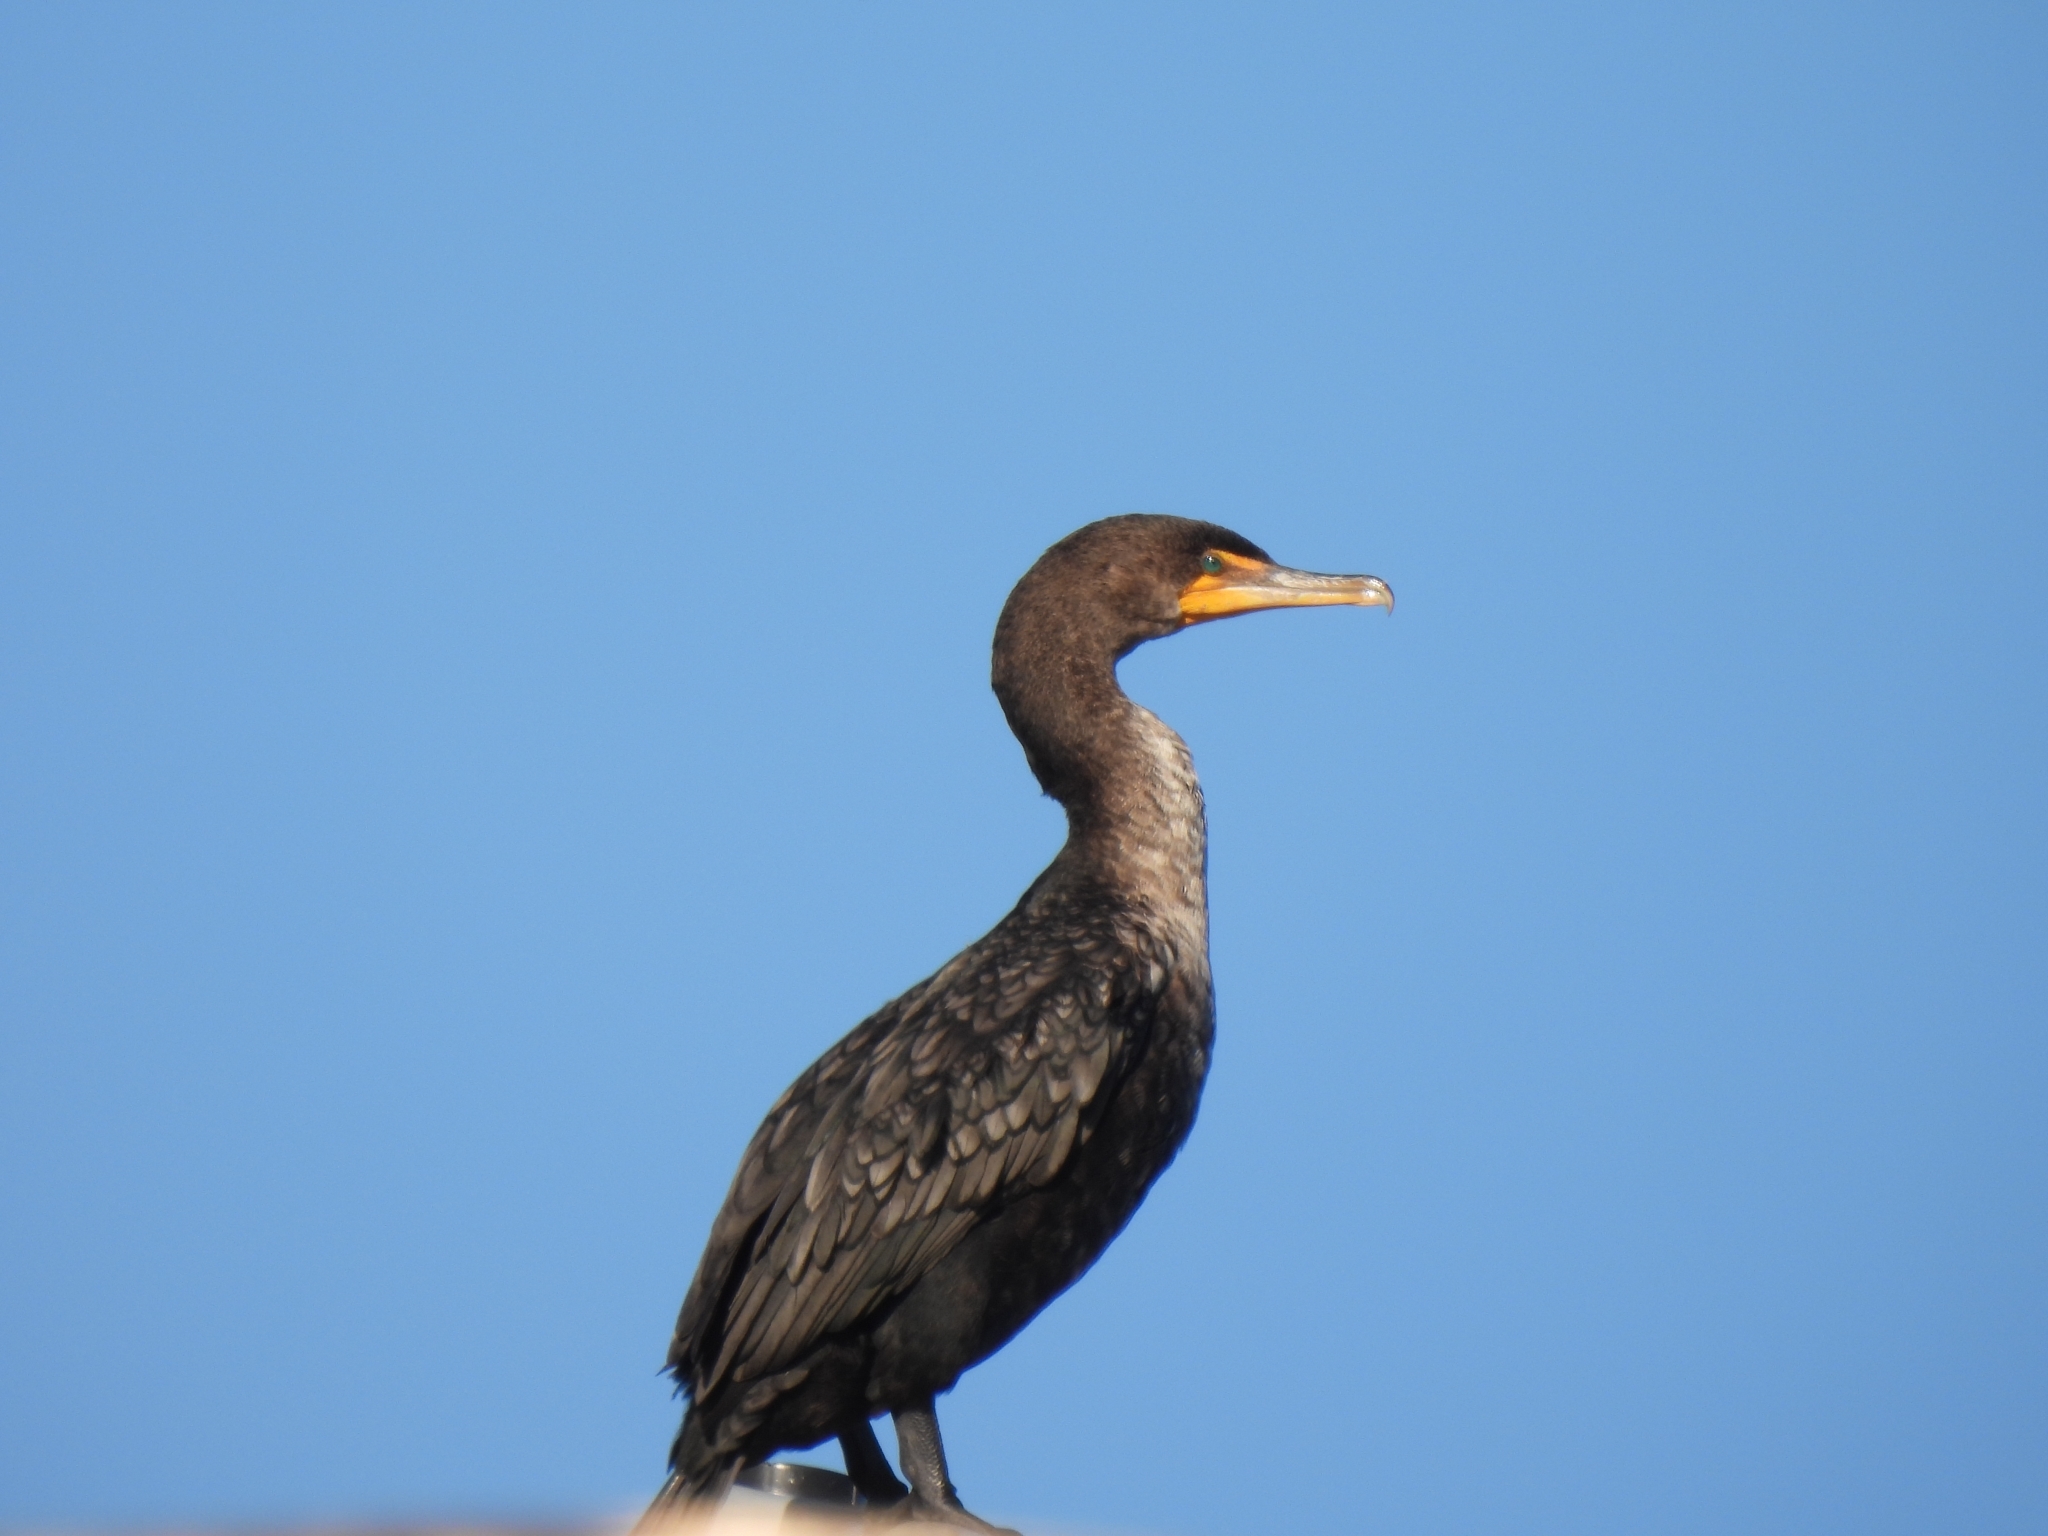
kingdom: Animalia
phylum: Chordata
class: Aves
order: Suliformes
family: Phalacrocoracidae
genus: Phalacrocorax
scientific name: Phalacrocorax auritus
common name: Double-crested cormorant
